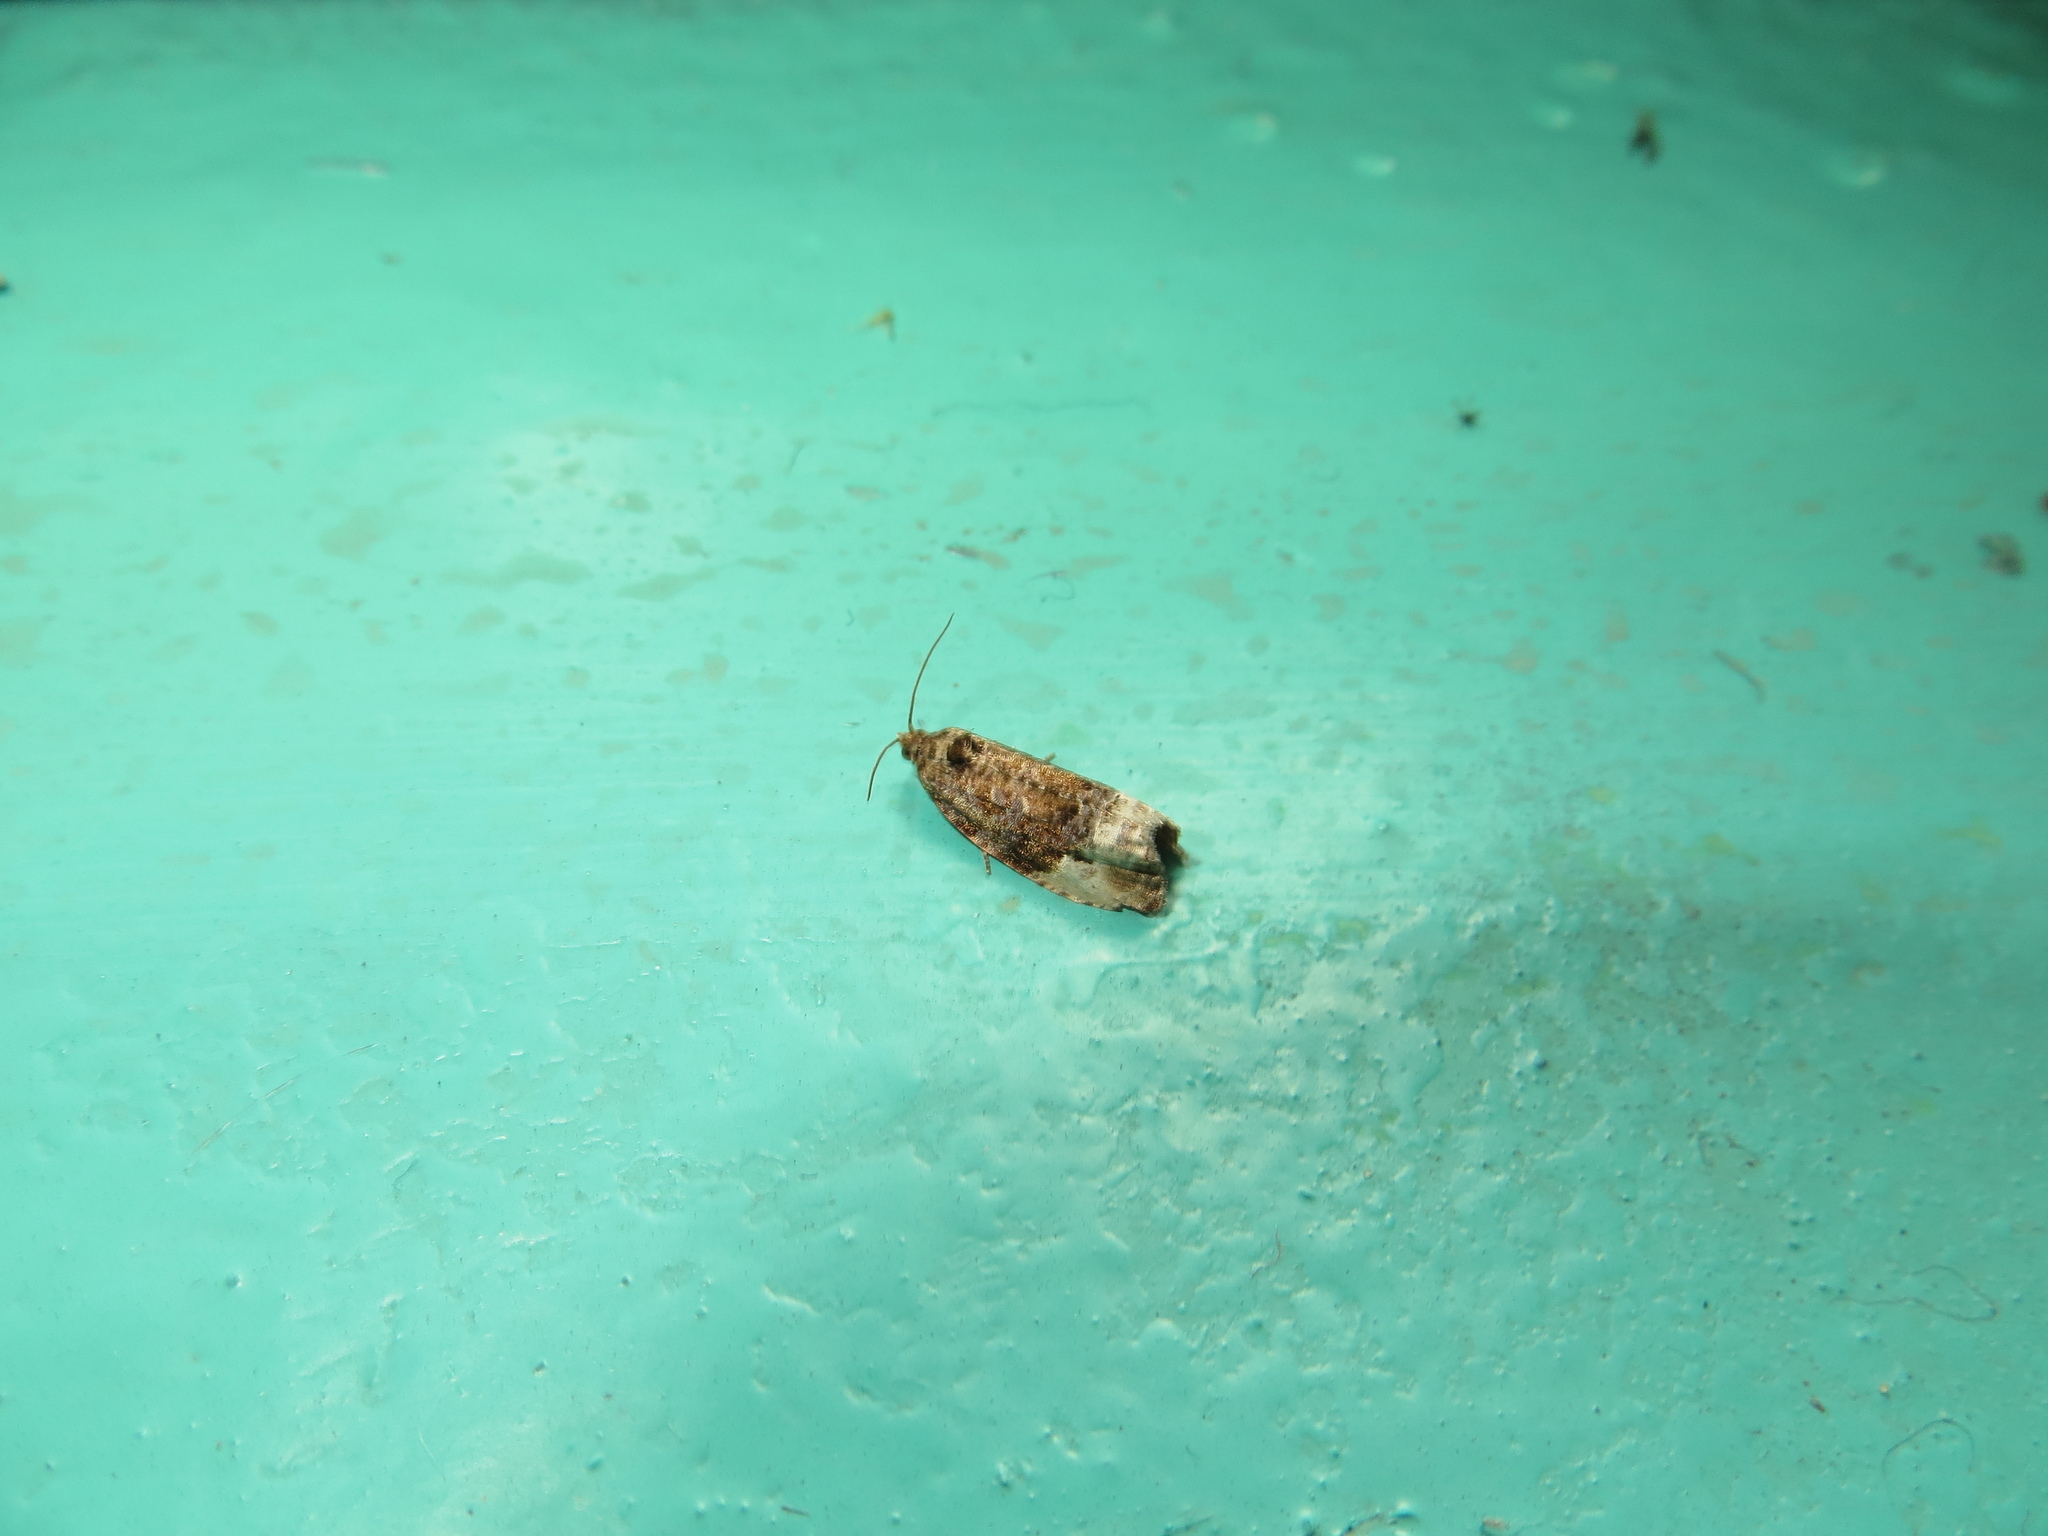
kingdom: Animalia
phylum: Arthropoda
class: Insecta
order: Lepidoptera
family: Tortricidae
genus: Hedya
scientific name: Hedya nubiferana
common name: Marbled orchard tortrix
